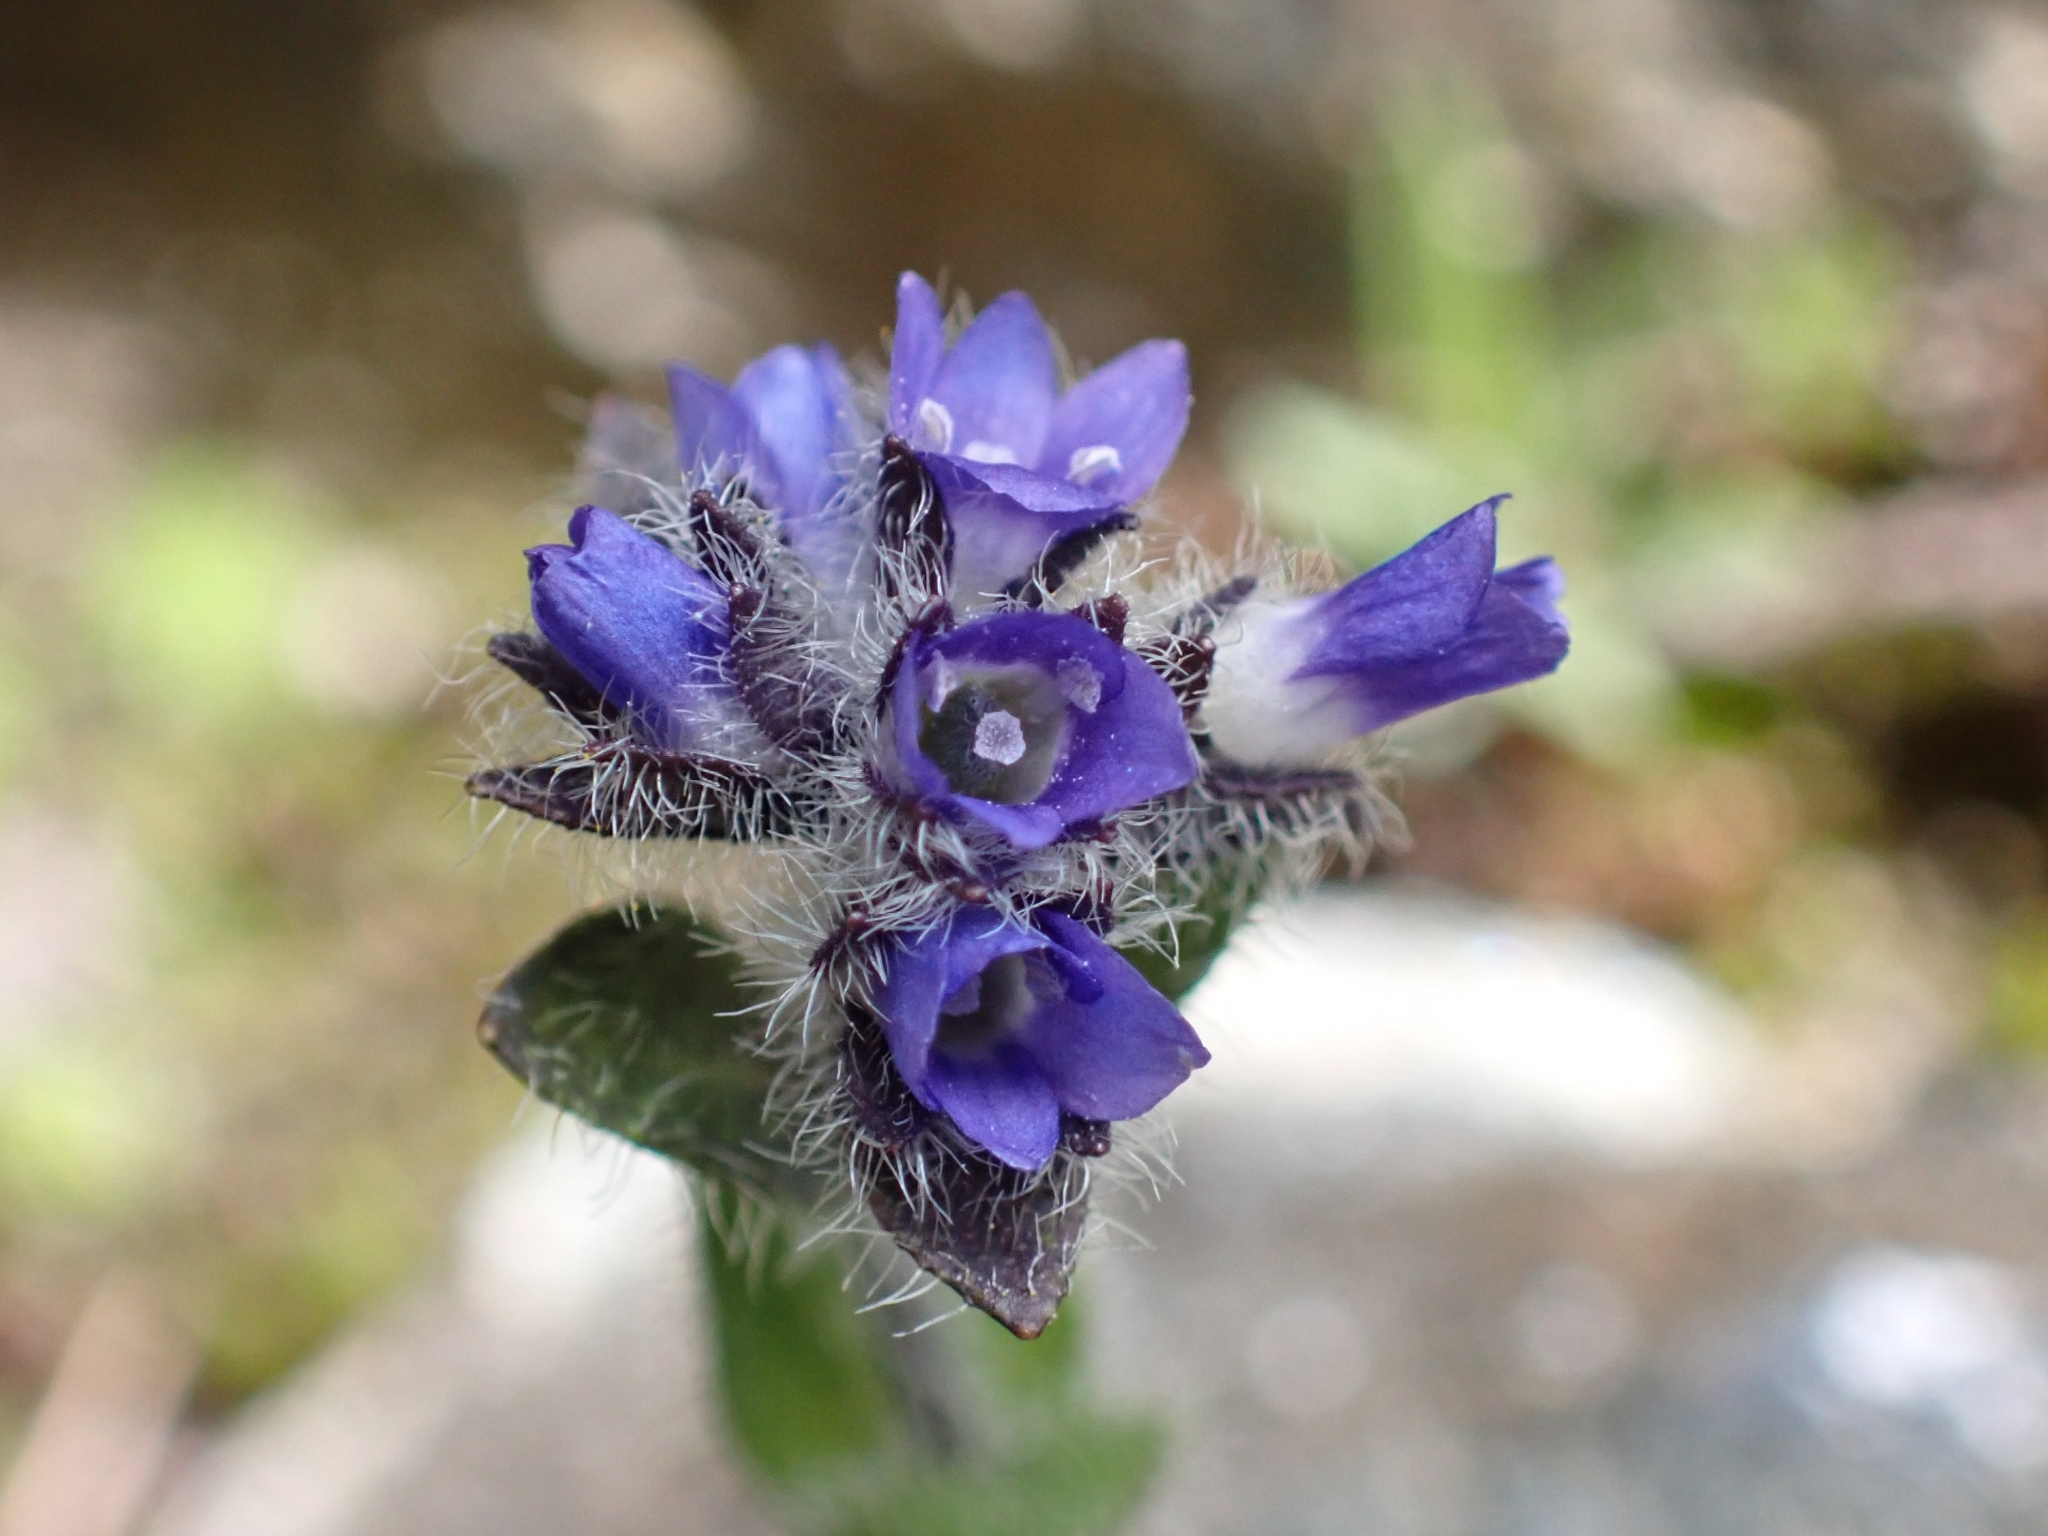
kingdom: Plantae
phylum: Tracheophyta
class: Magnoliopsida
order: Lamiales
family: Plantaginaceae
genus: Veronica
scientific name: Veronica alpina
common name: Alpine speedwell
